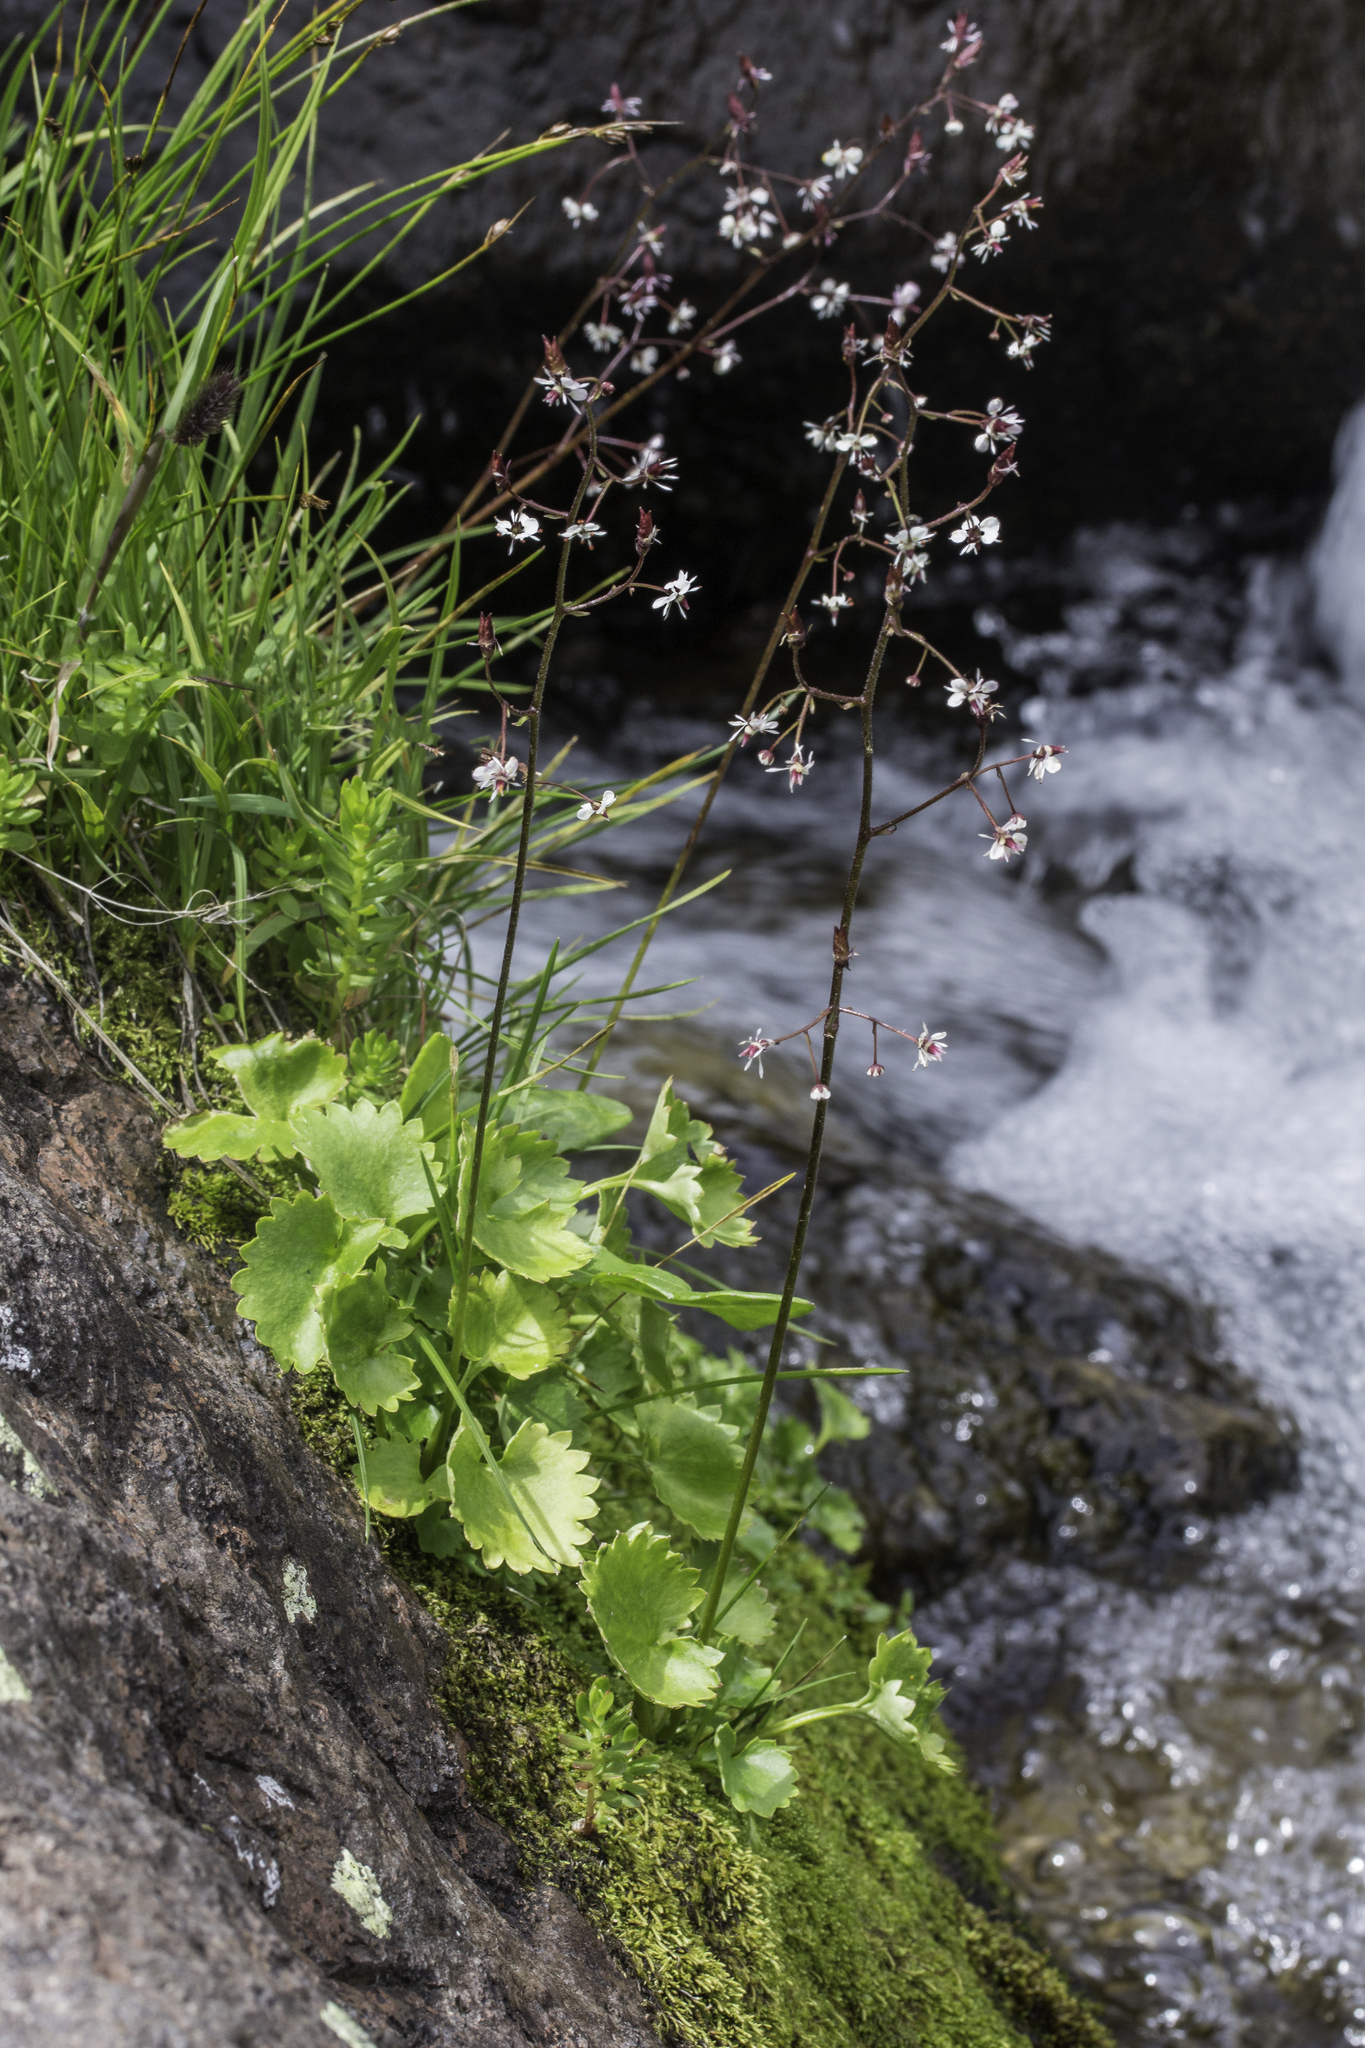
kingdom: Plantae
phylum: Tracheophyta
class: Magnoliopsida
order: Saxifragales
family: Saxifragaceae
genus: Micranthes
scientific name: Micranthes odontoloma
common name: Brook saxifrage
